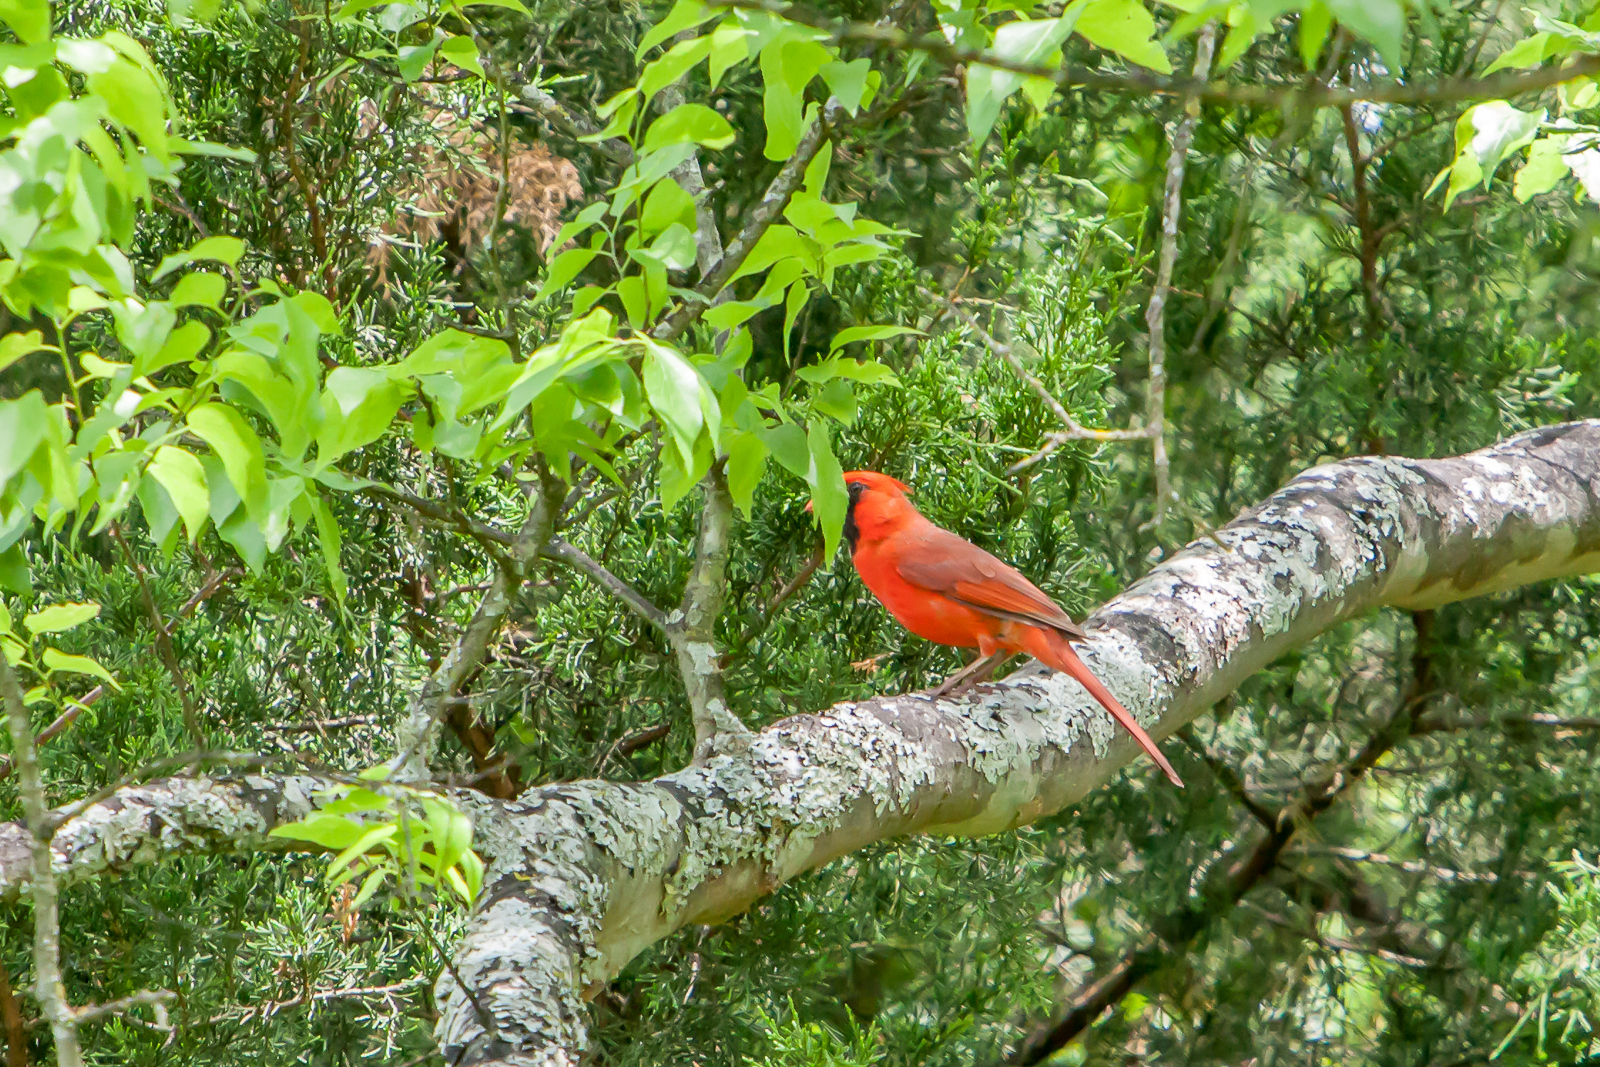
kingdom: Animalia
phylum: Chordata
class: Aves
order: Passeriformes
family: Cardinalidae
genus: Cardinalis
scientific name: Cardinalis cardinalis
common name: Northern cardinal
